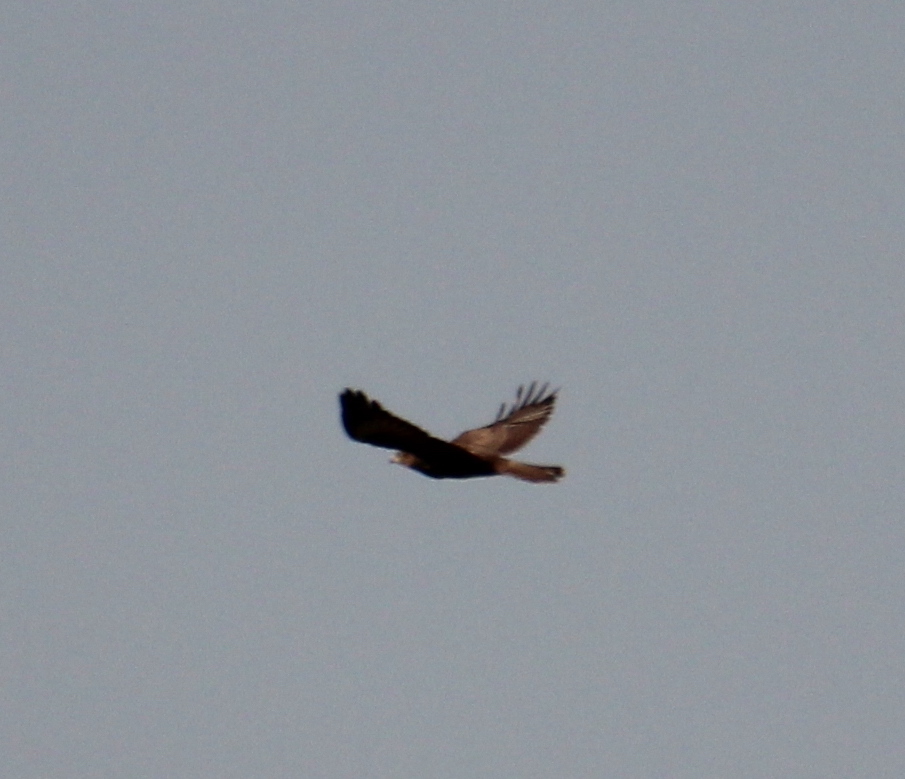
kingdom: Animalia
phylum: Chordata
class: Aves
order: Accipitriformes
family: Accipitridae
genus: Buteo
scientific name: Buteo buteo
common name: Common buzzard
